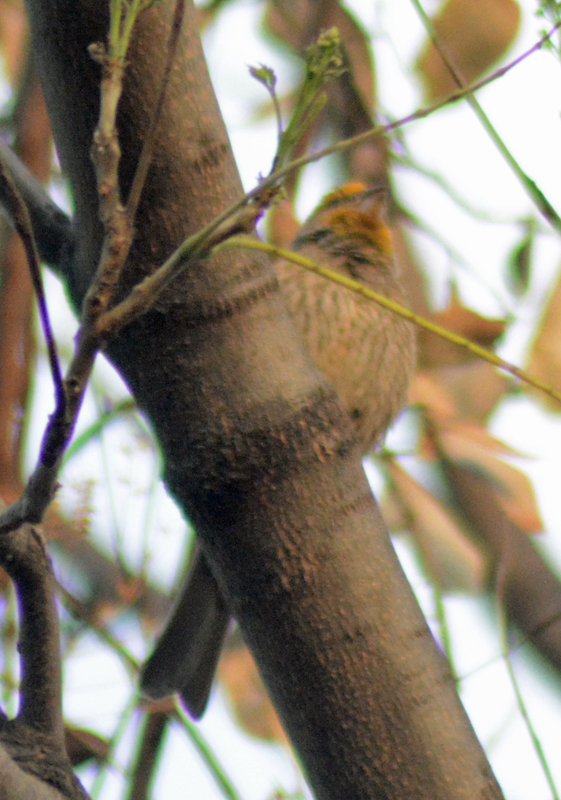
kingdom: Animalia
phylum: Chordata
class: Aves
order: Passeriformes
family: Fringillidae
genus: Haemorhous
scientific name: Haemorhous mexicanus
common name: House finch
